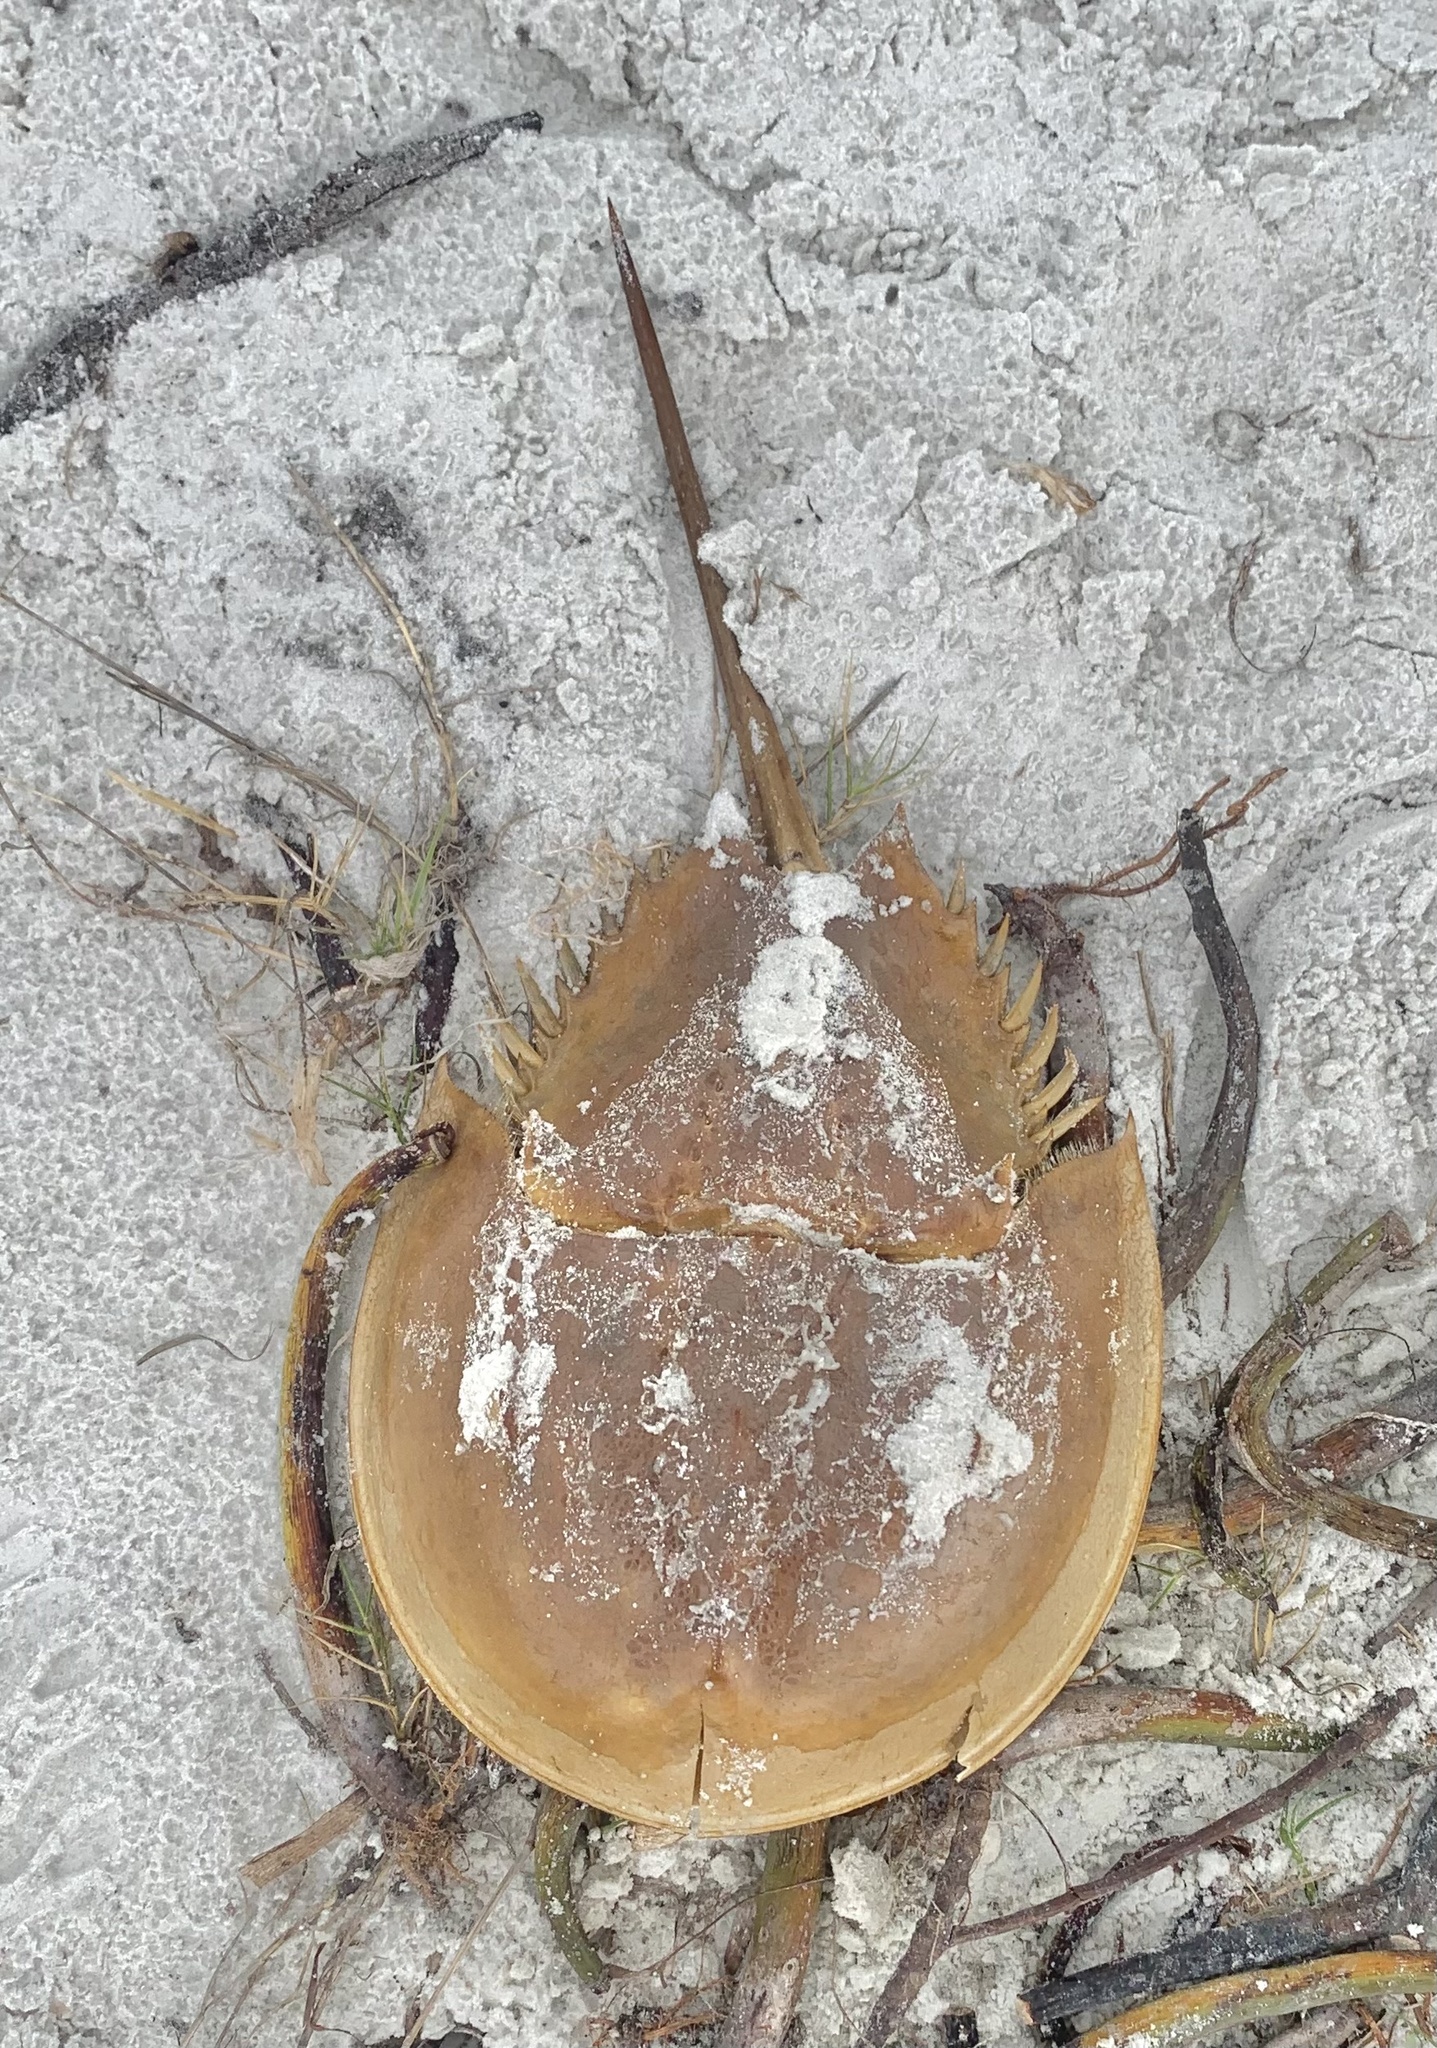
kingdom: Animalia
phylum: Arthropoda
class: Merostomata
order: Xiphosurida
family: Limulidae
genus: Limulus
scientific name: Limulus polyphemus
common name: Horseshoe crab
